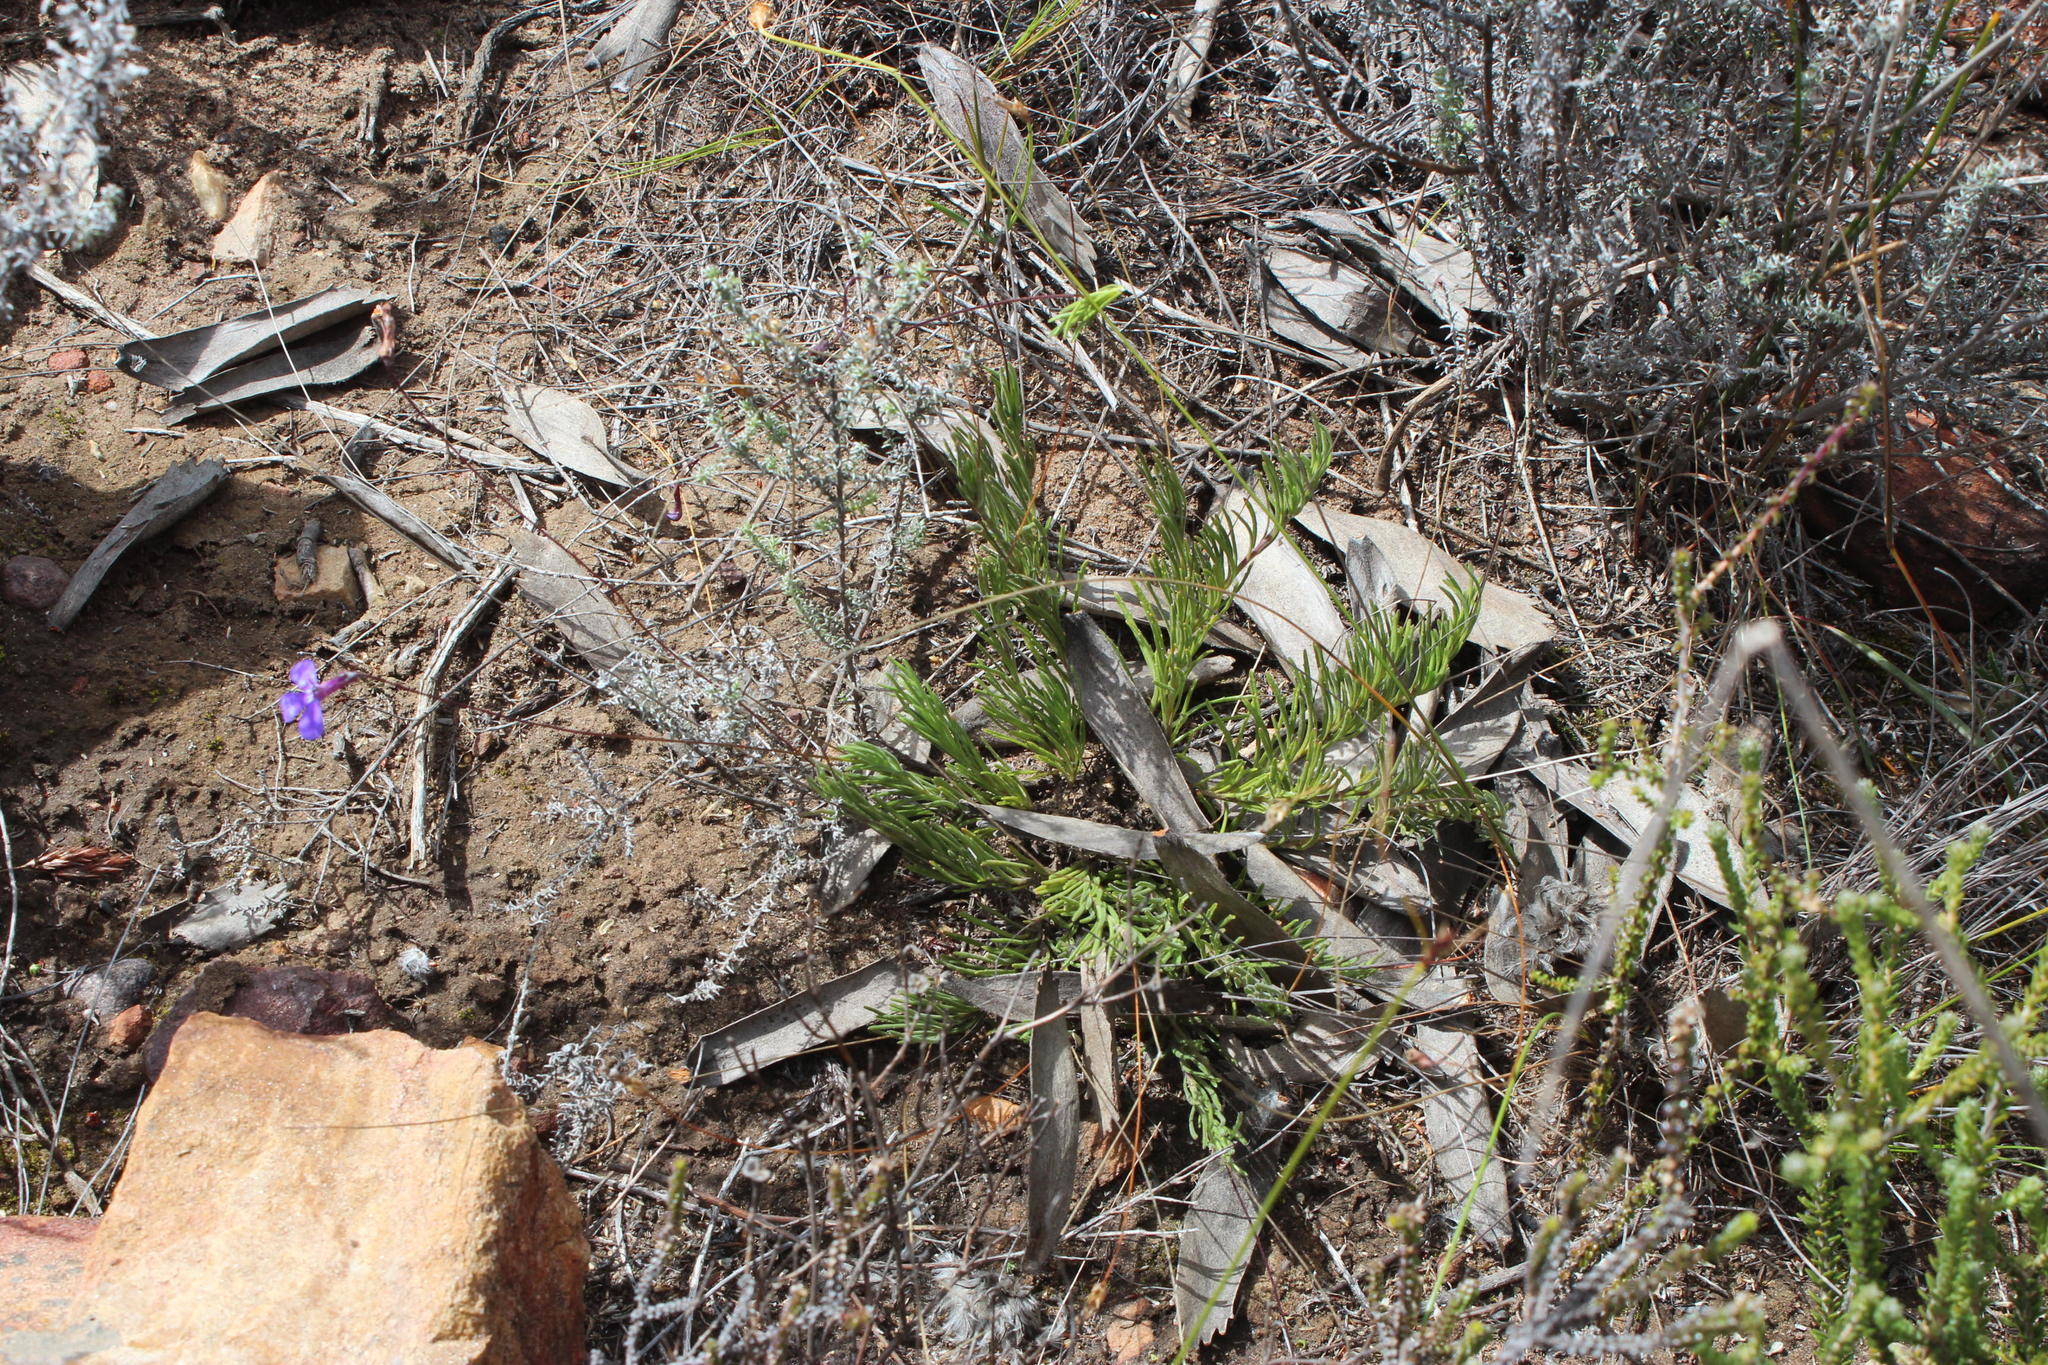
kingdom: Plantae
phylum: Tracheophyta
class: Magnoliopsida
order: Asterales
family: Campanulaceae
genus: Lobelia
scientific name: Lobelia tomentosa
